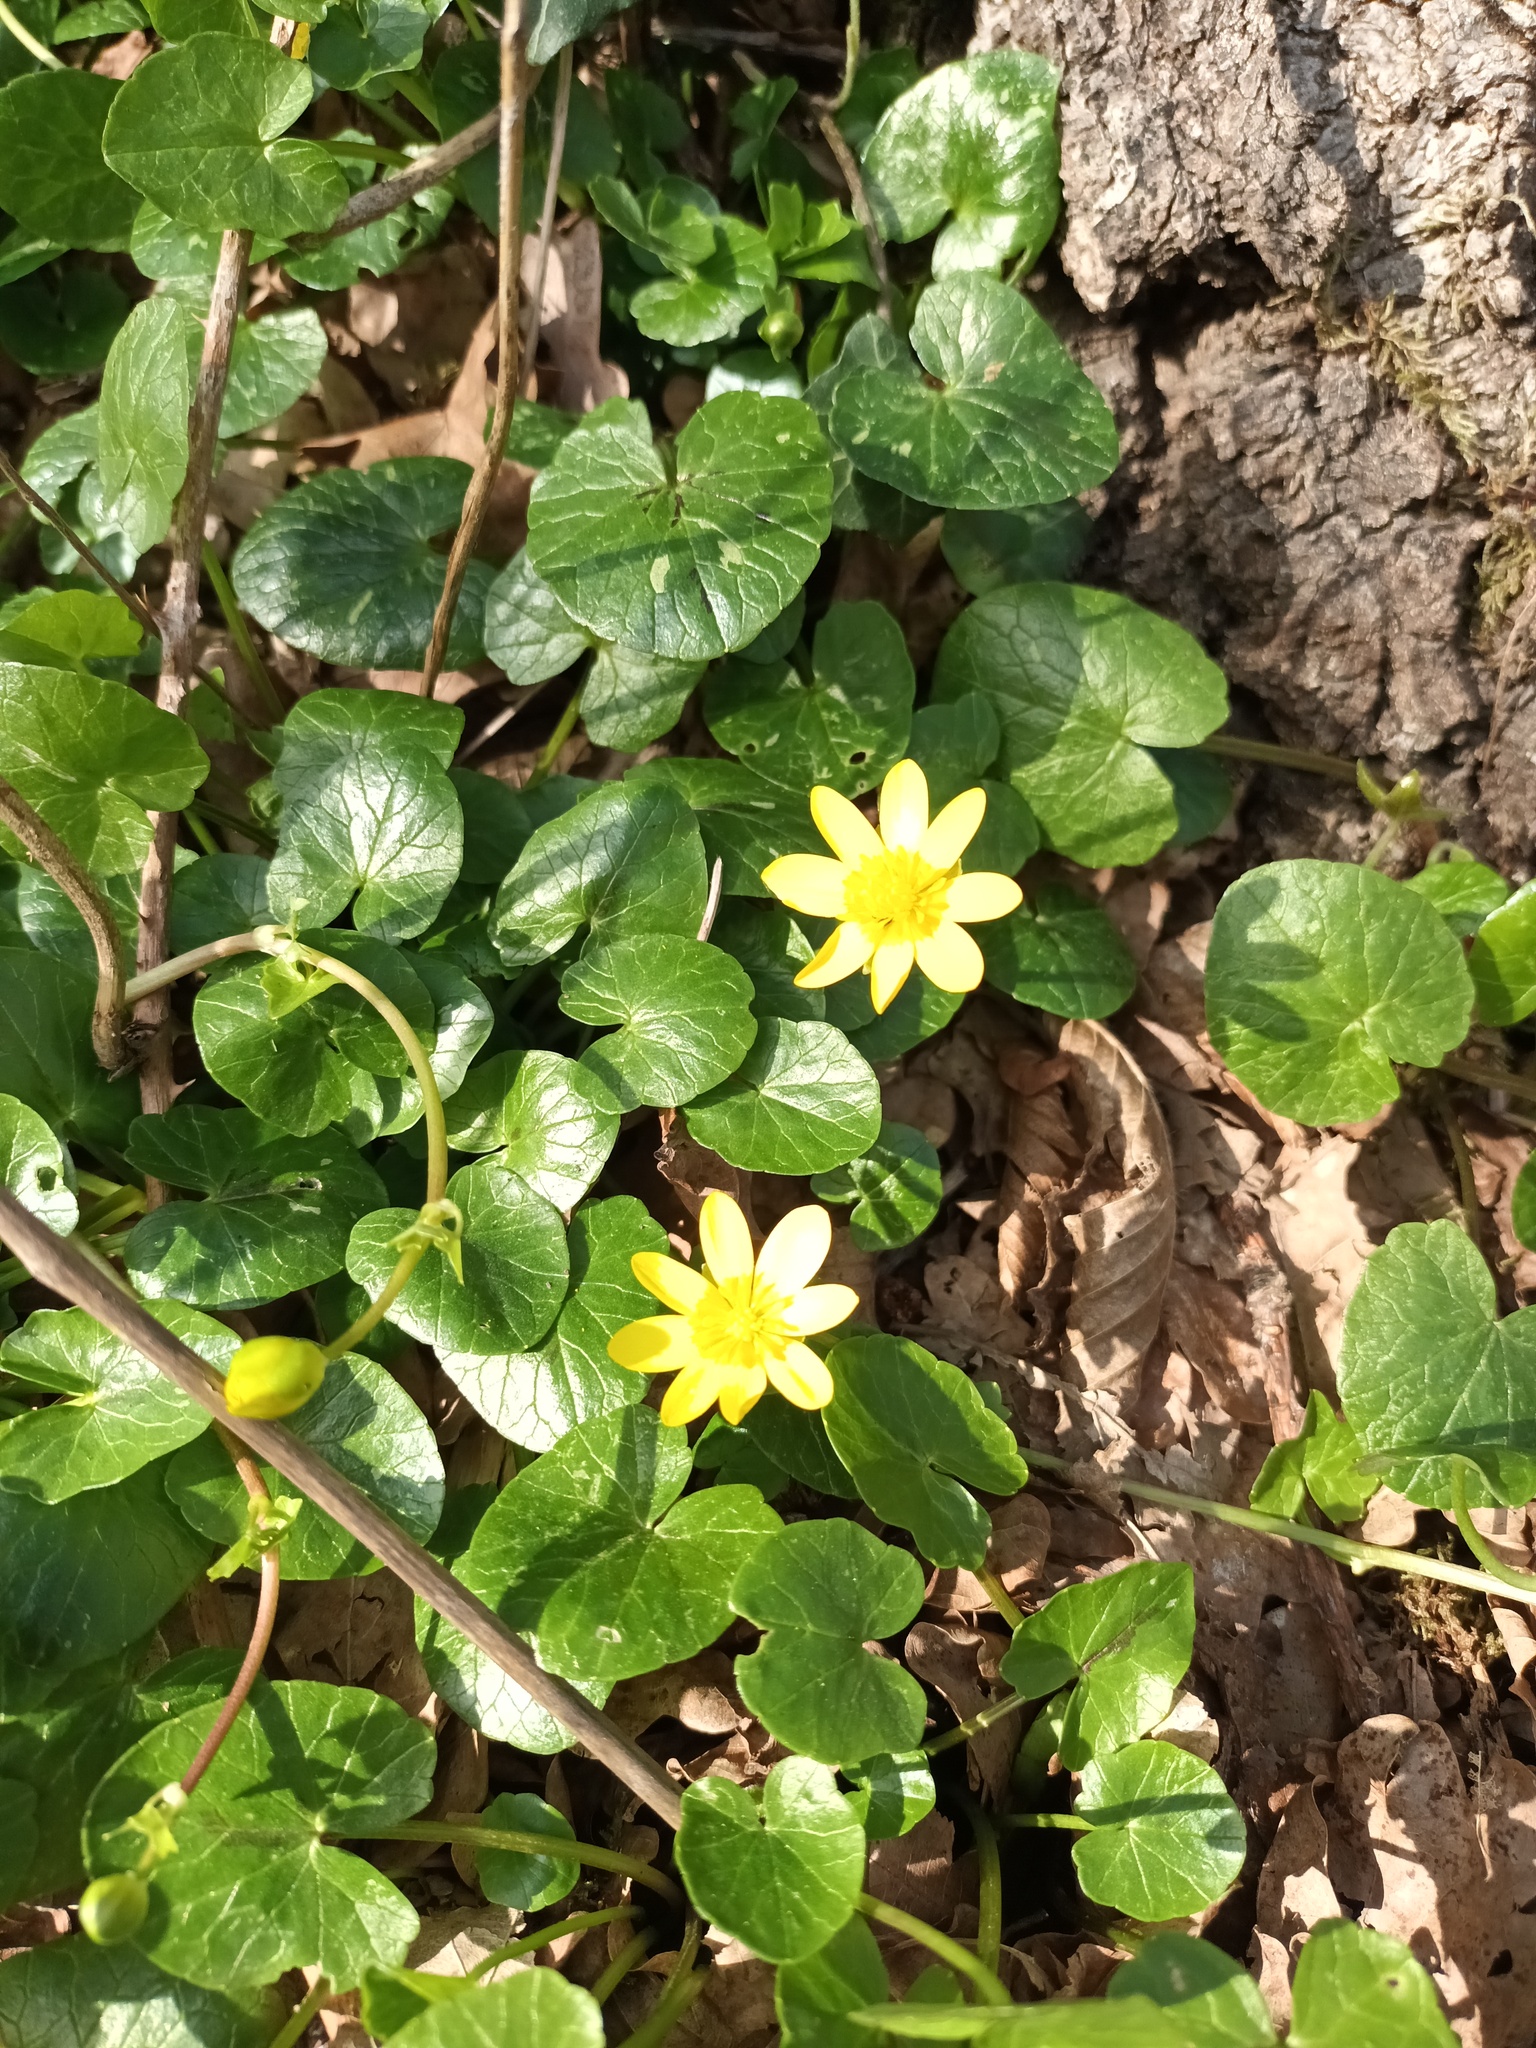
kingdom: Plantae
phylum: Tracheophyta
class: Magnoliopsida
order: Ranunculales
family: Ranunculaceae
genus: Ficaria
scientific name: Ficaria verna
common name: Lesser celandine
